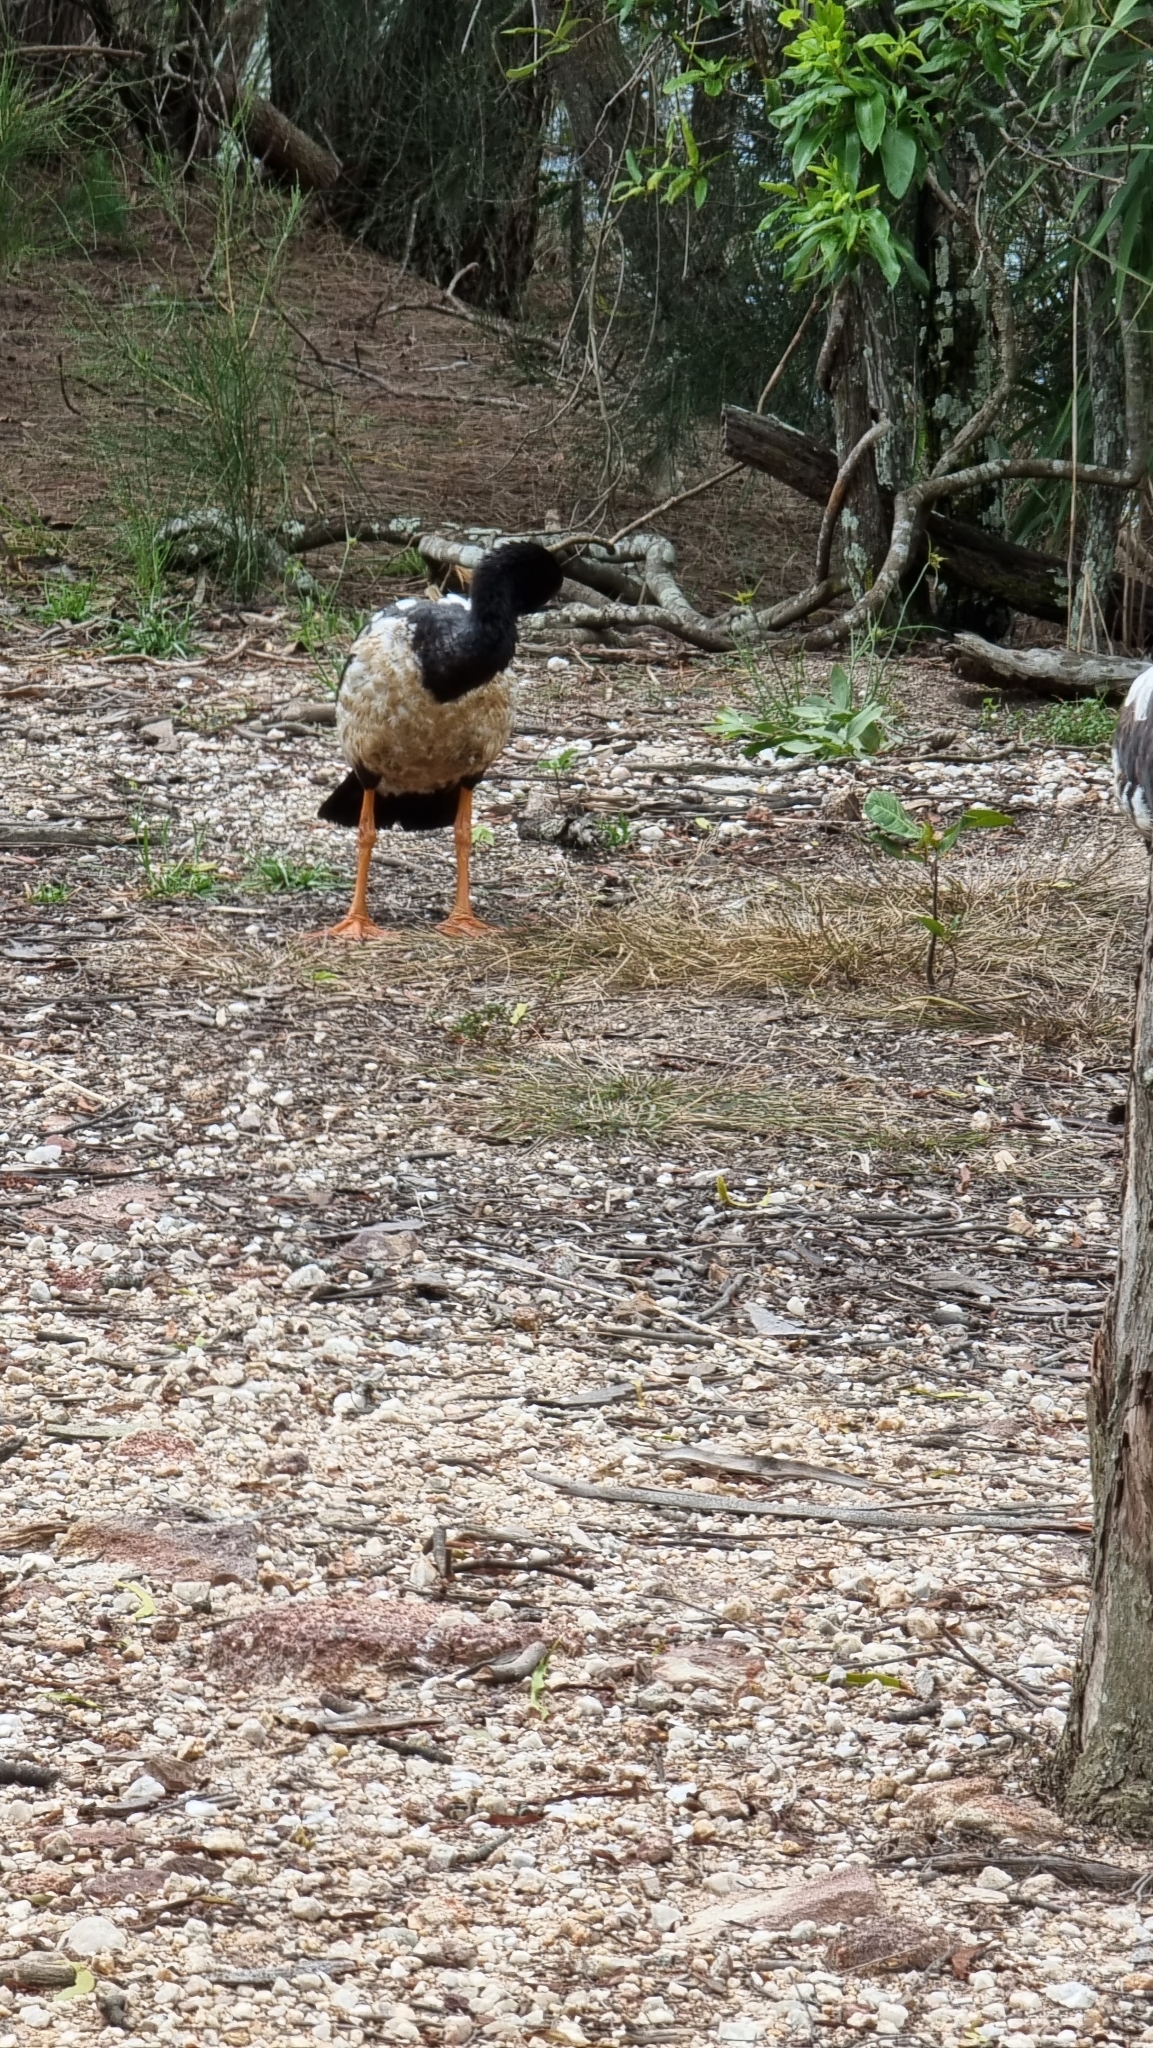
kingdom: Animalia
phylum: Chordata
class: Aves
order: Anseriformes
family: Anseranatidae
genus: Anseranas
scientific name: Anseranas semipalmata
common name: Magpie goose
